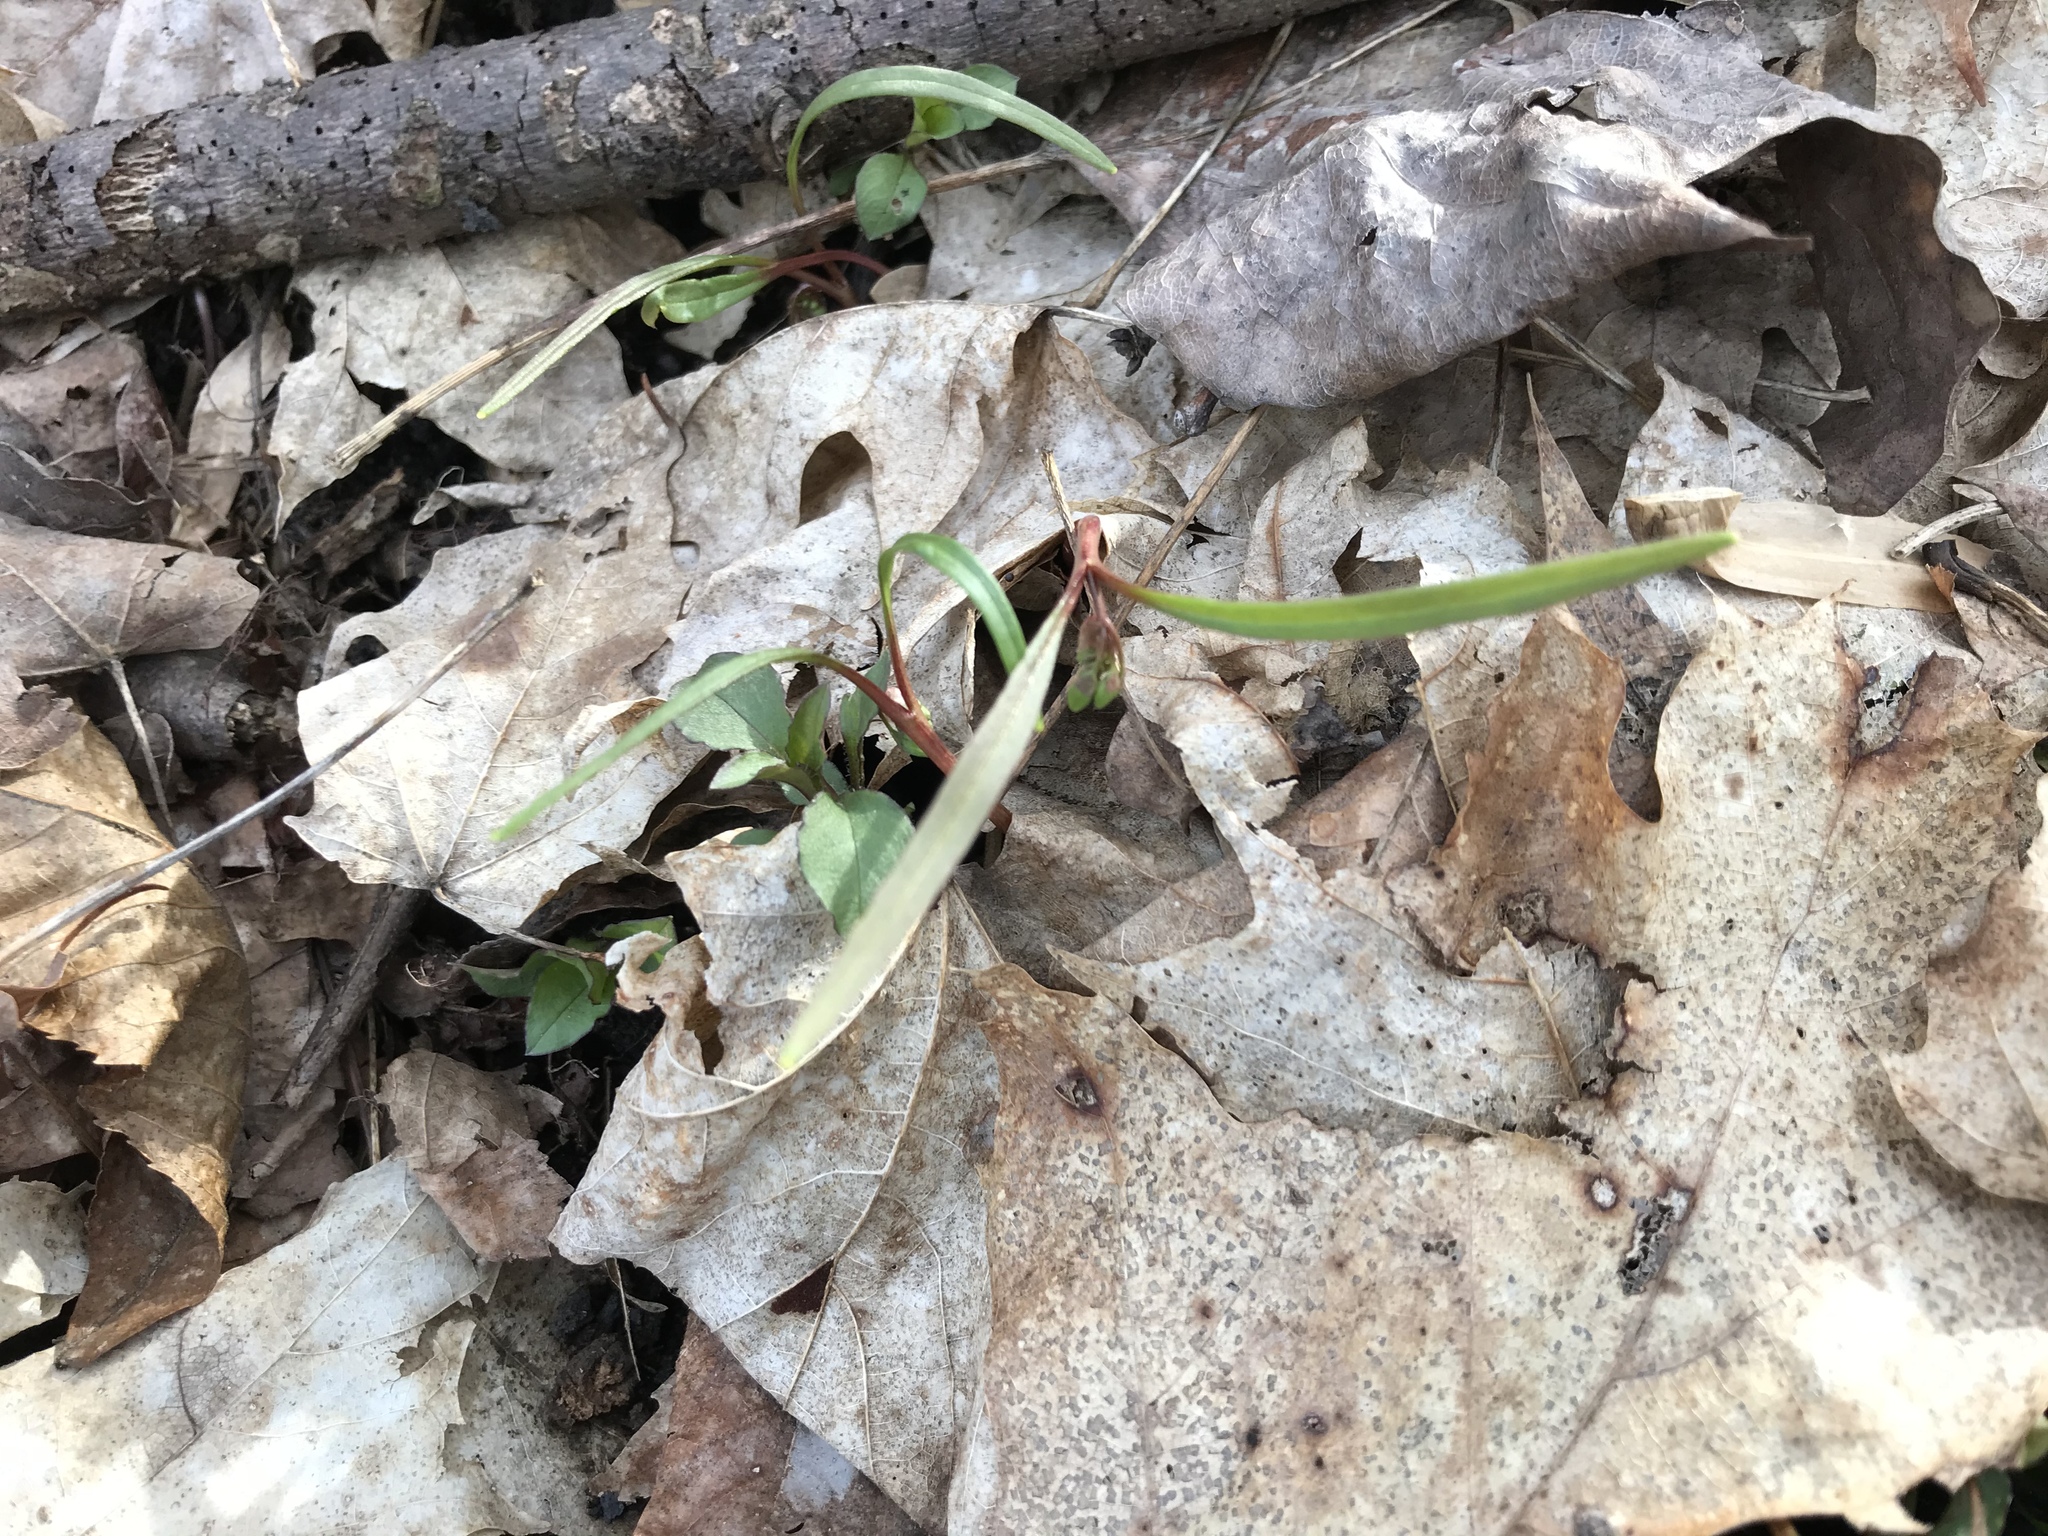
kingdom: Plantae
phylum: Tracheophyta
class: Magnoliopsida
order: Caryophyllales
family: Montiaceae
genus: Claytonia
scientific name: Claytonia virginica
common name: Virginia springbeauty
